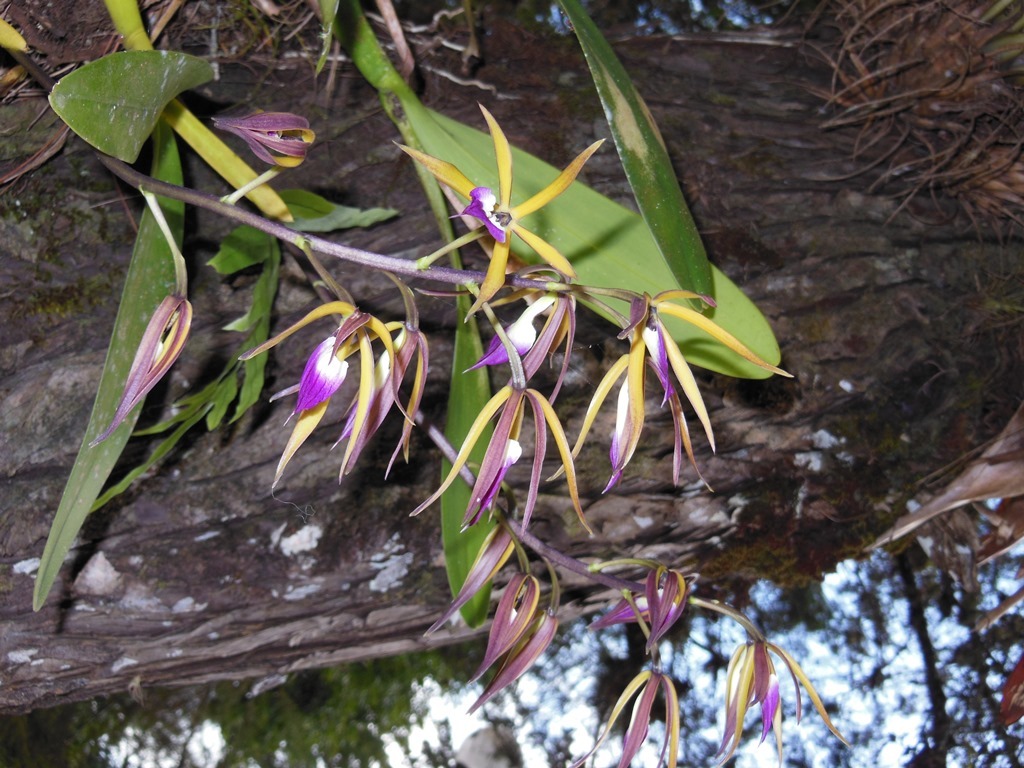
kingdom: Plantae
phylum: Tracheophyta
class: Liliopsida
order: Asparagales
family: Orchidaceae
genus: Prosthechea
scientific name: Prosthechea brassavolae
